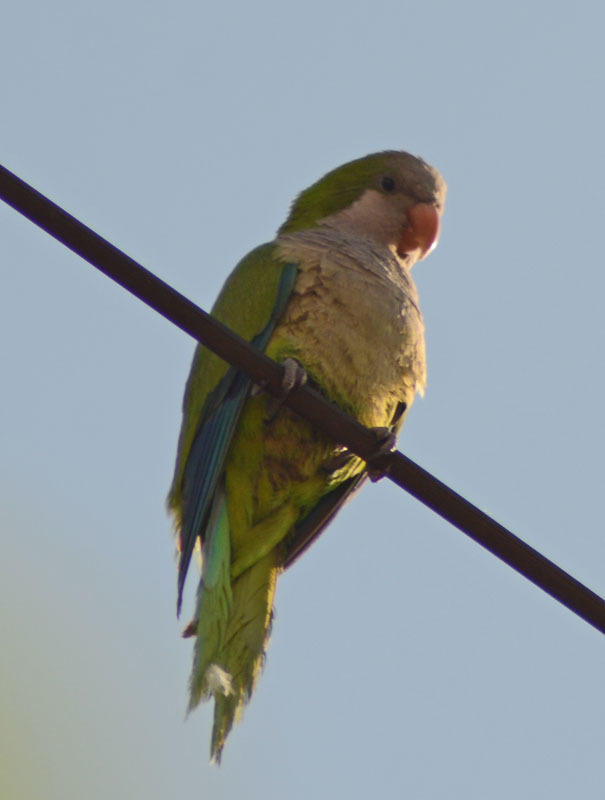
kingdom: Animalia
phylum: Chordata
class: Aves
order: Psittaciformes
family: Psittacidae
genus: Myiopsitta
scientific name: Myiopsitta monachus
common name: Monk parakeet
